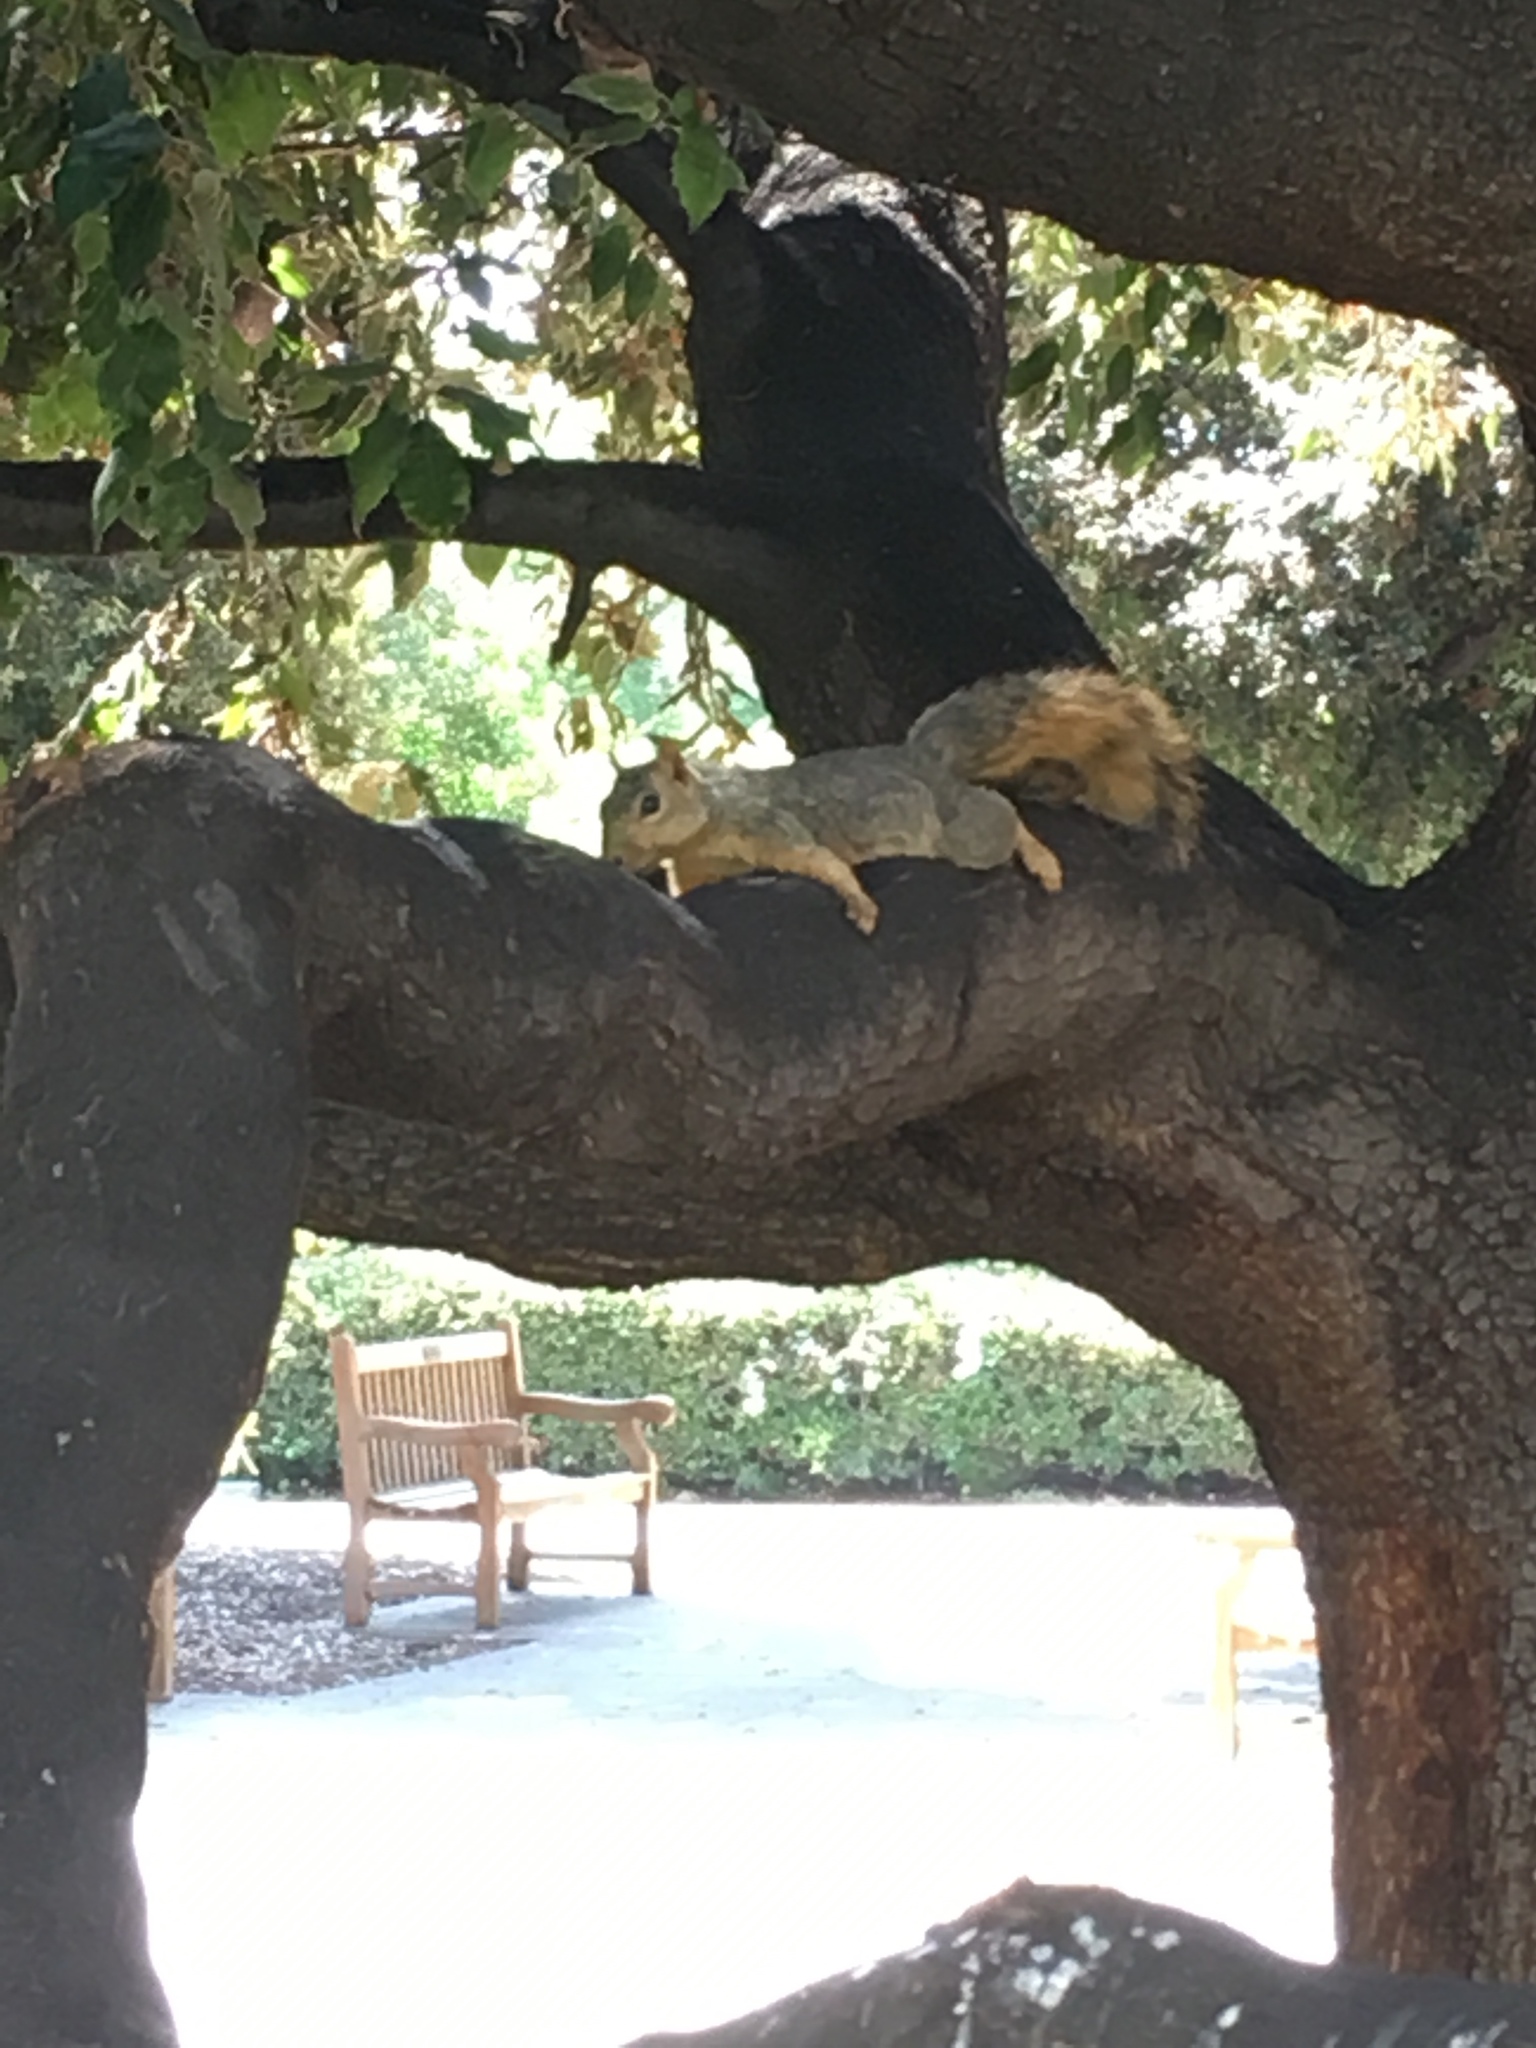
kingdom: Animalia
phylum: Chordata
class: Mammalia
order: Rodentia
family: Sciuridae
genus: Sciurus
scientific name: Sciurus niger
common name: Fox squirrel
